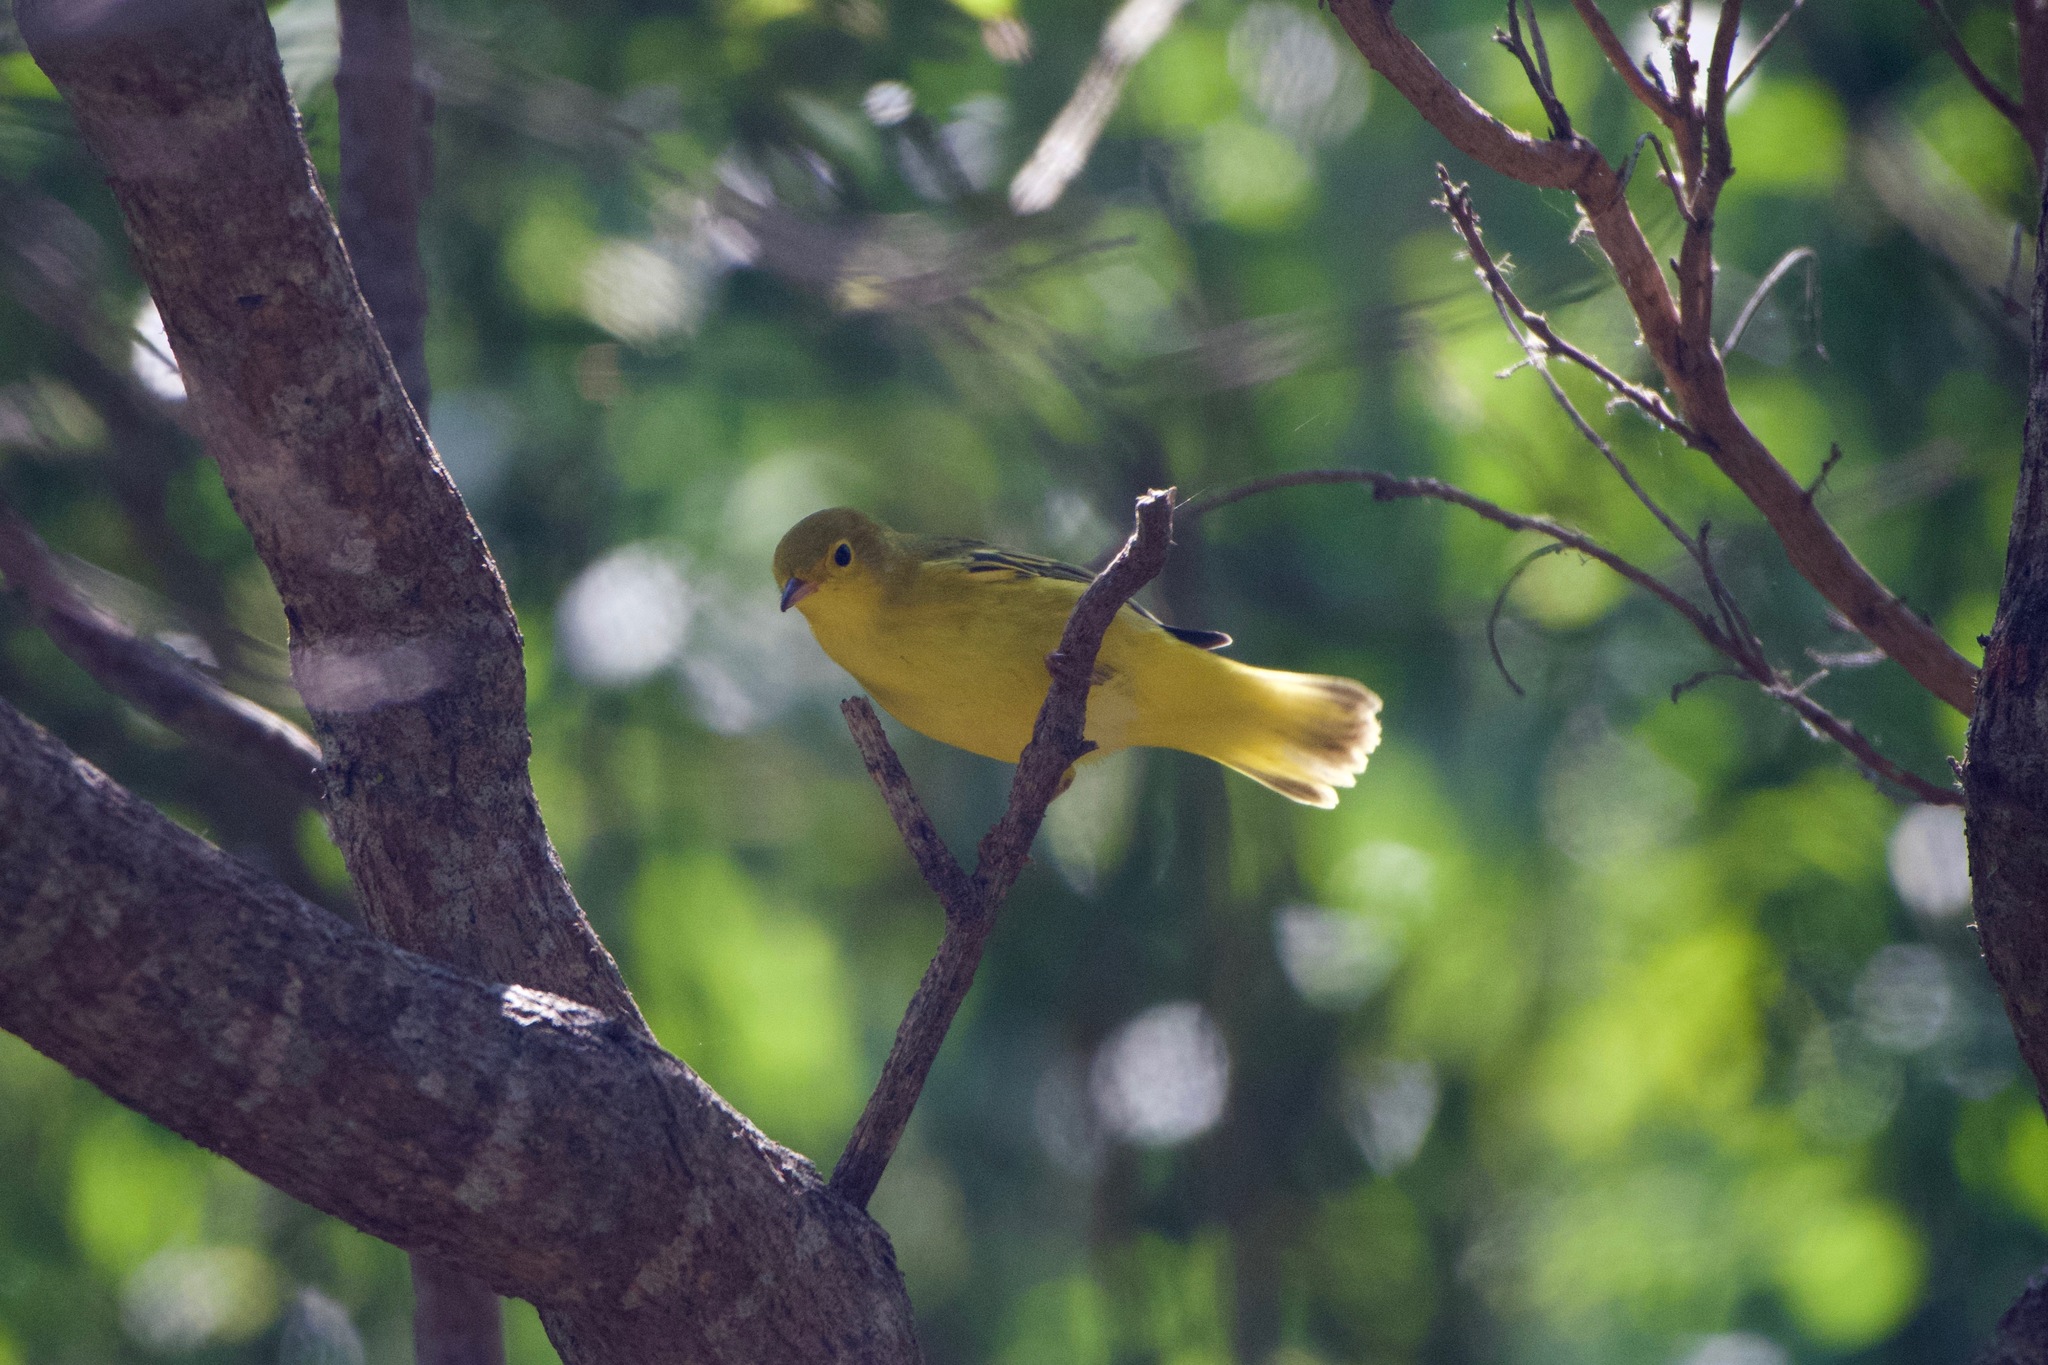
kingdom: Animalia
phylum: Chordata
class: Aves
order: Passeriformes
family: Parulidae
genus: Setophaga
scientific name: Setophaga petechia
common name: Yellow warbler
